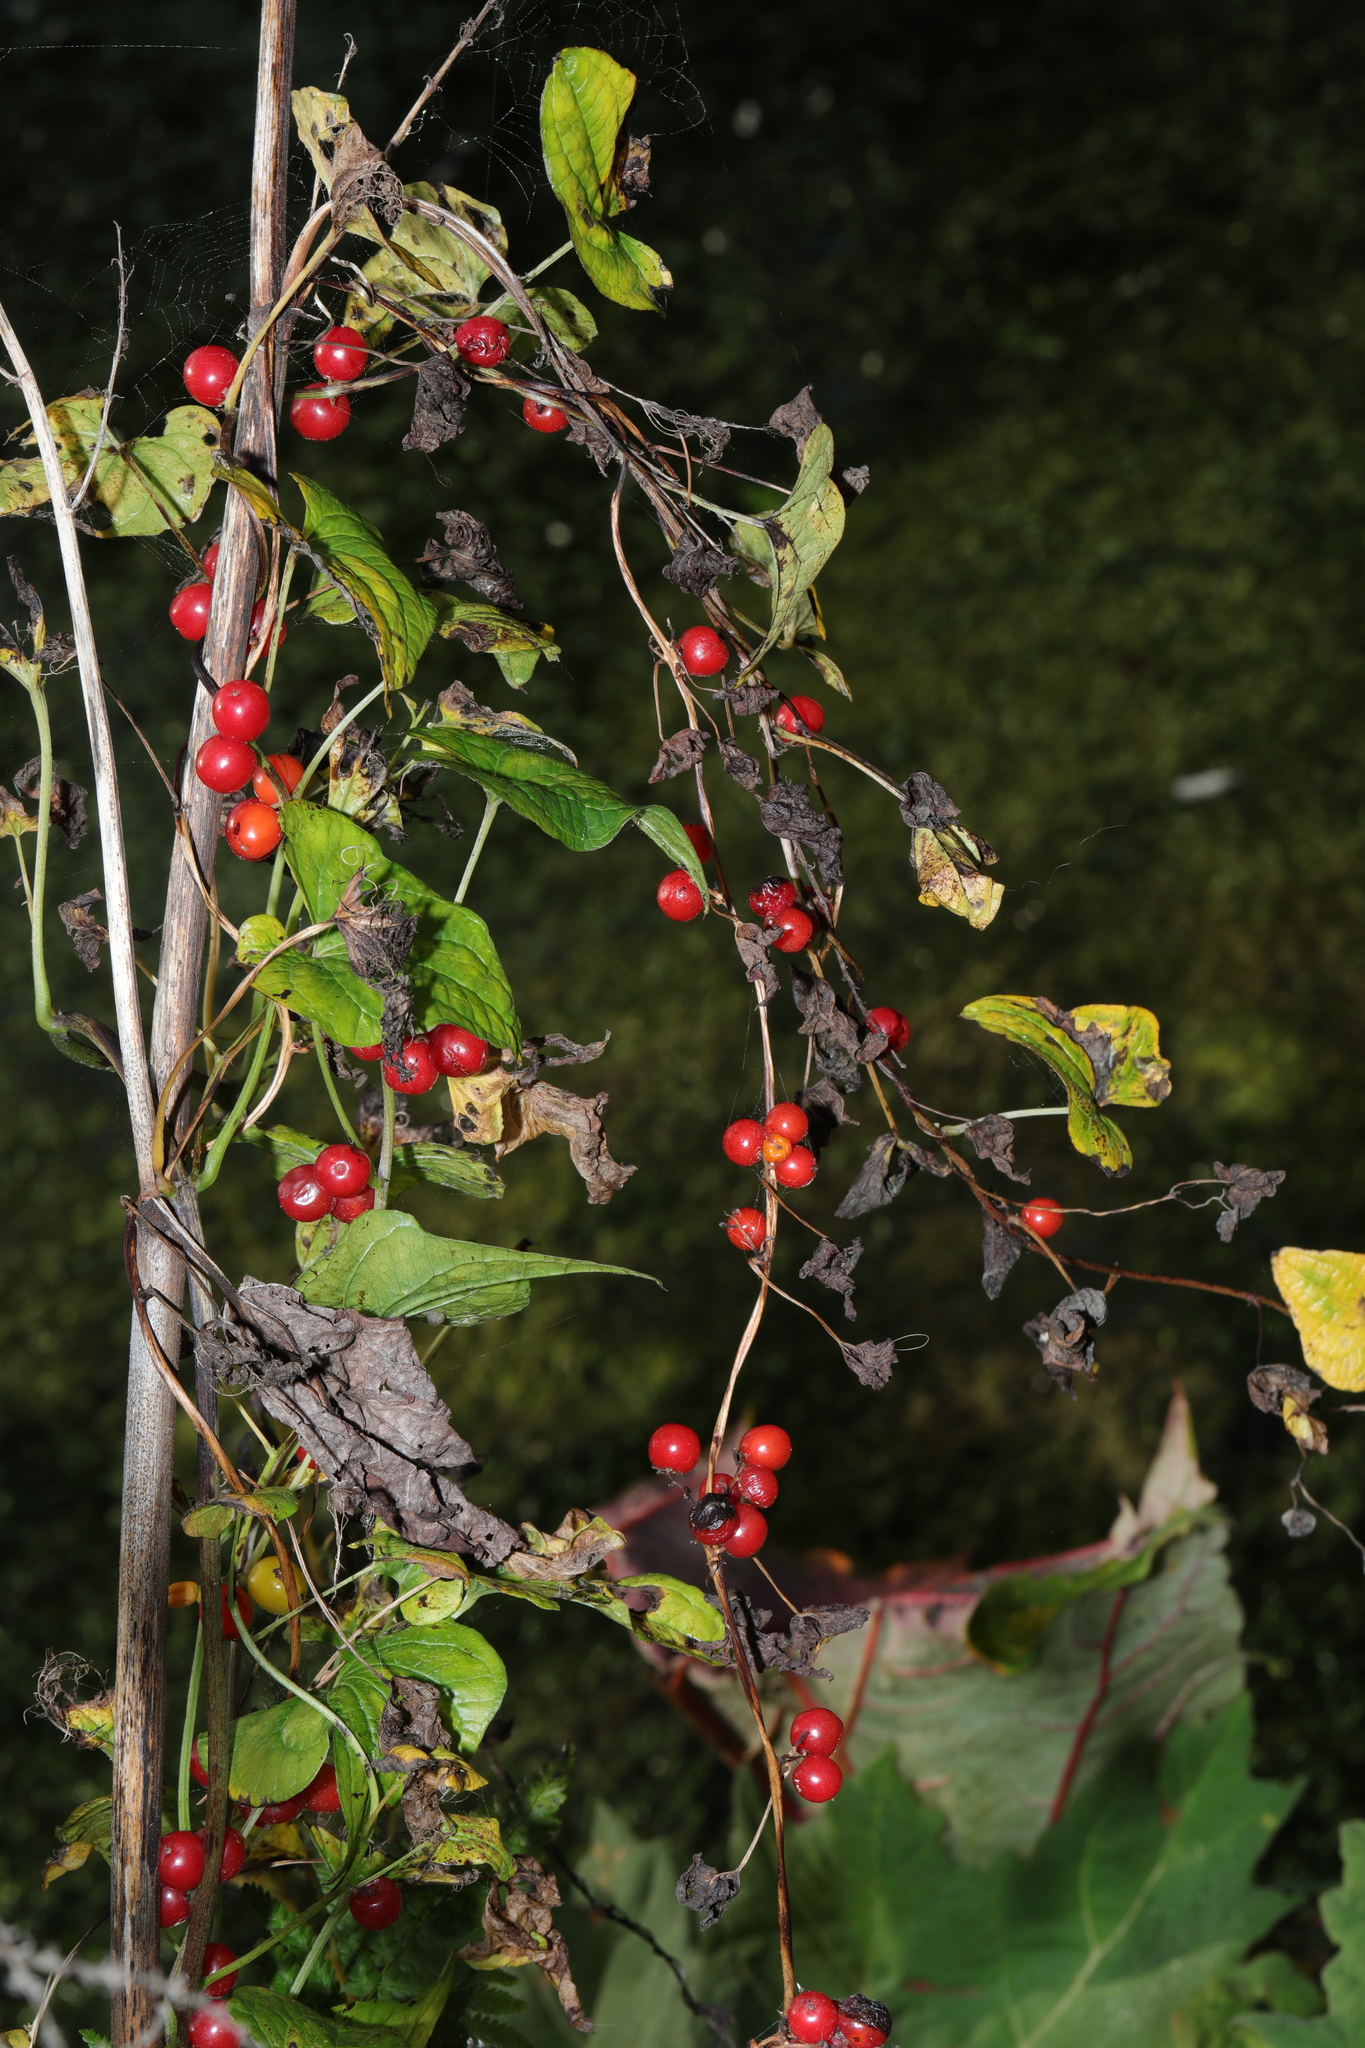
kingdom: Plantae
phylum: Tracheophyta
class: Liliopsida
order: Dioscoreales
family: Dioscoreaceae
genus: Dioscorea
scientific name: Dioscorea communis
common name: Black-bindweed
